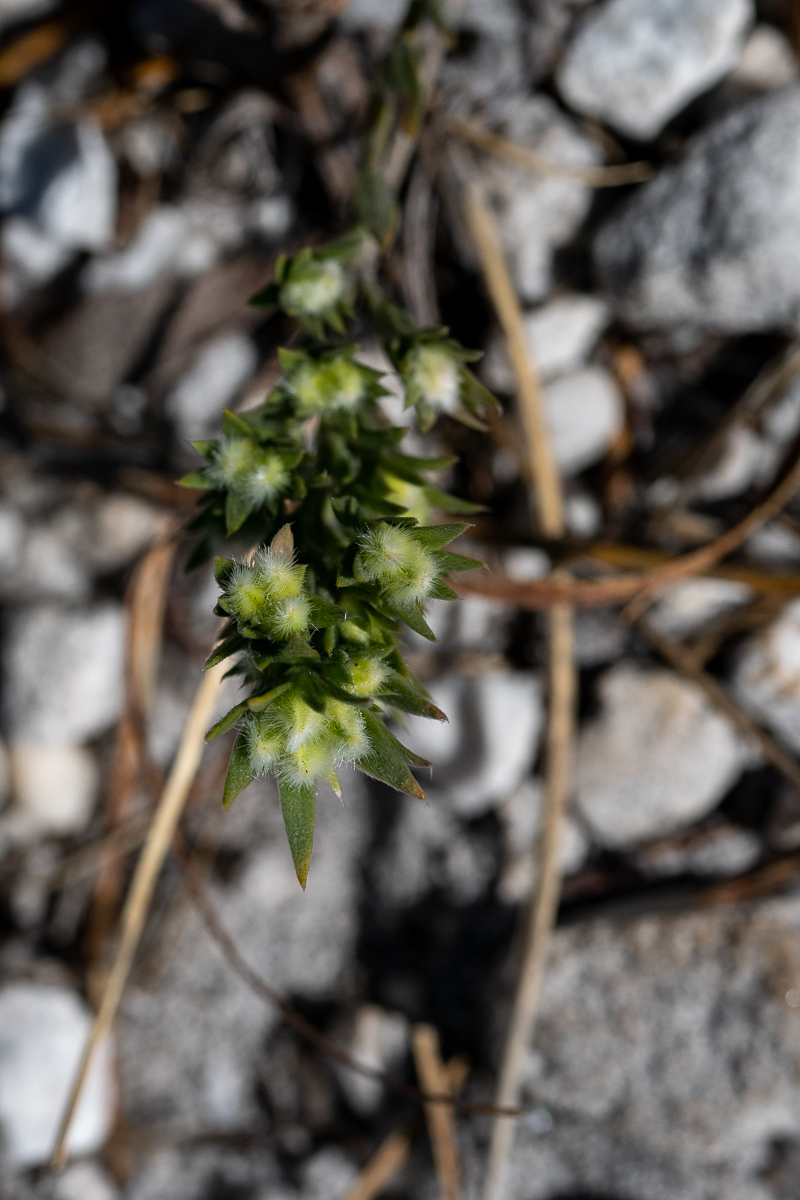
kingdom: Plantae
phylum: Tracheophyta
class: Magnoliopsida
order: Fabales
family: Fabaceae
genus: Amphithalea
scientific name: Amphithalea tomentosa
